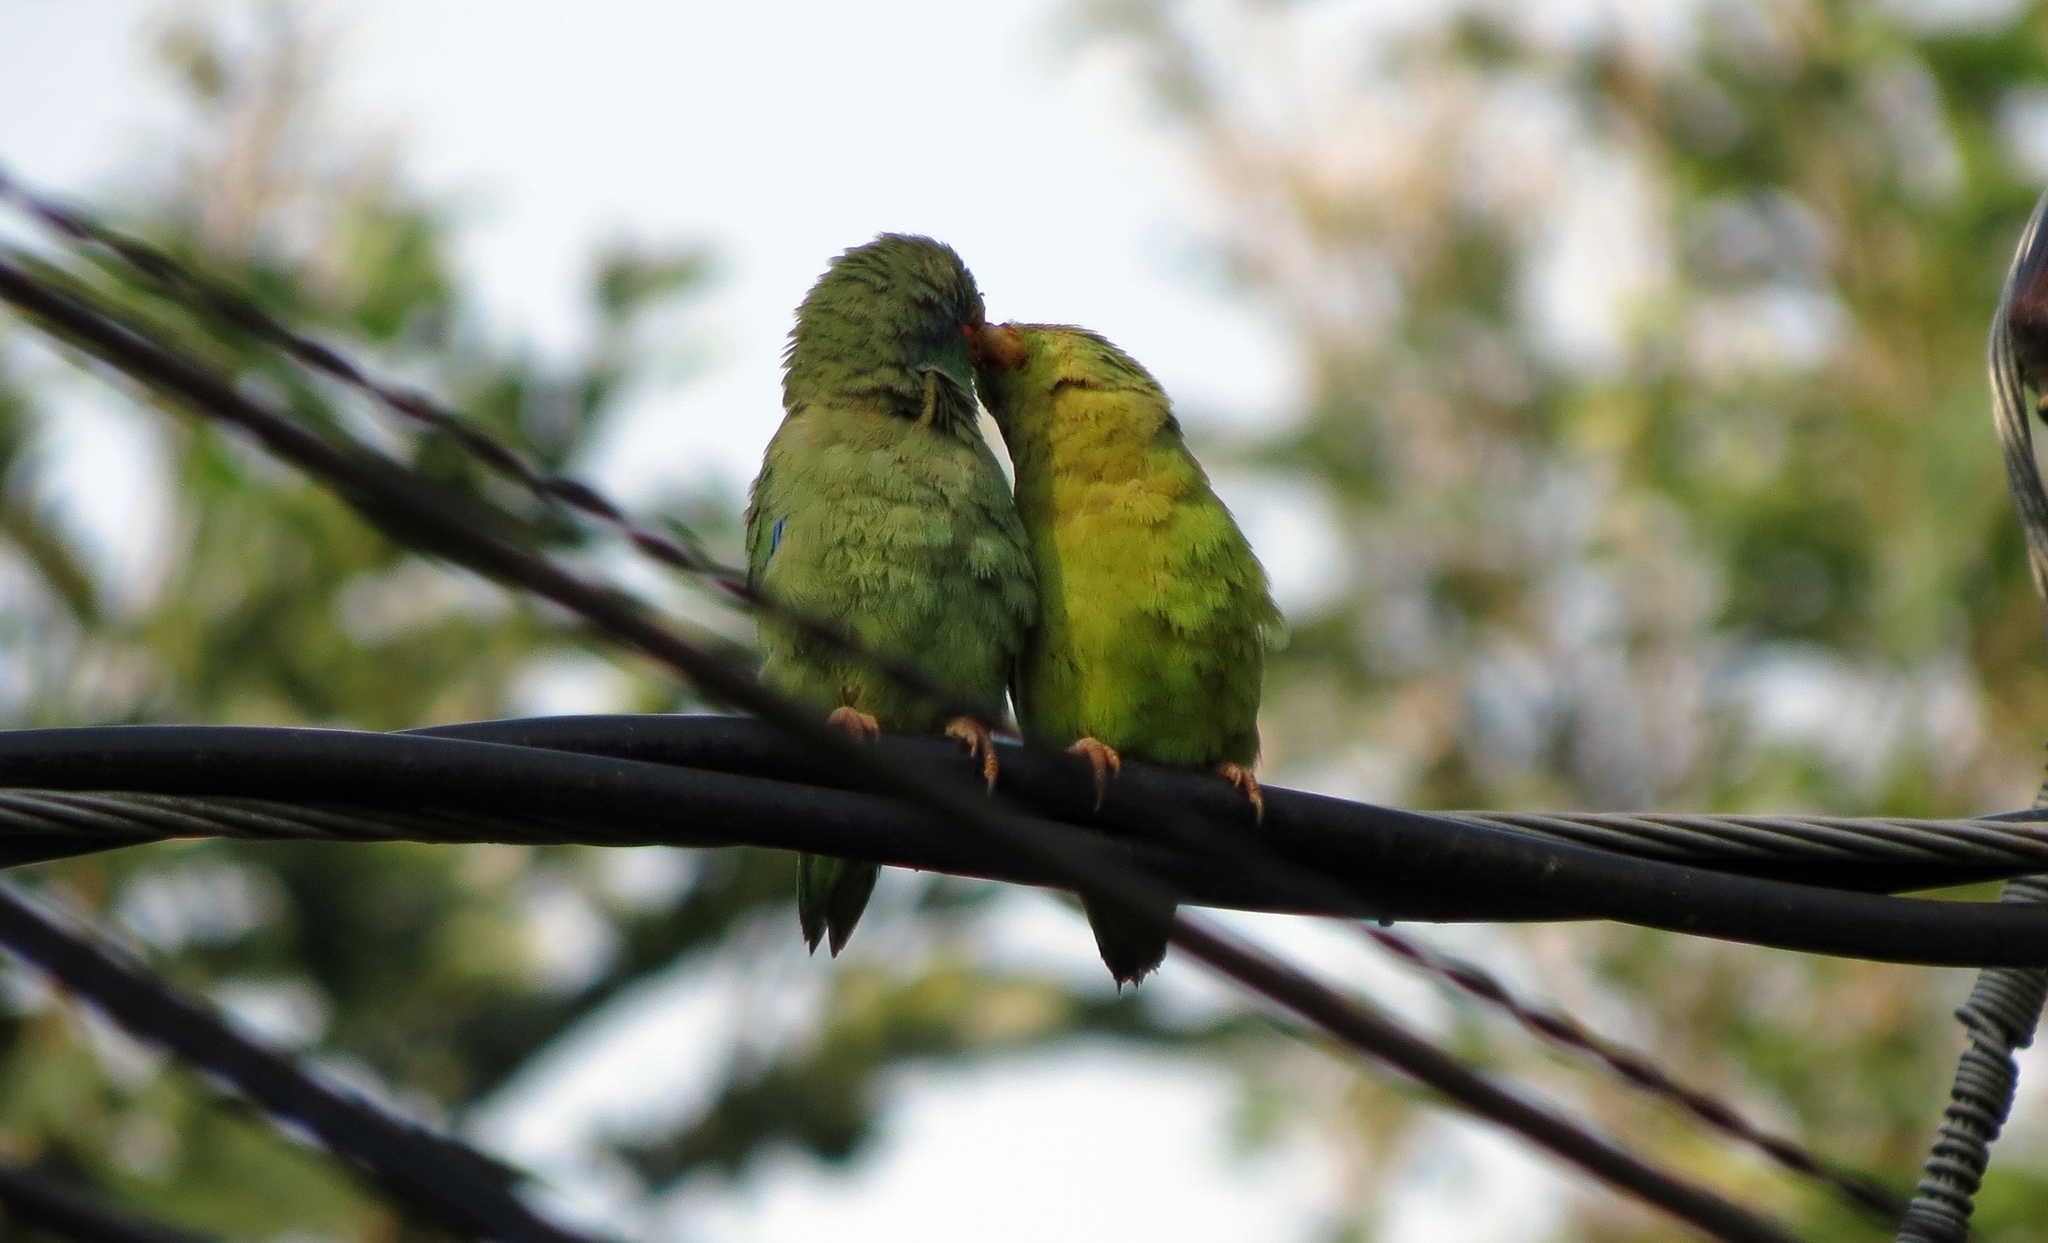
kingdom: Animalia
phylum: Chordata
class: Aves
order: Psittaciformes
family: Psittacidae
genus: Forpus
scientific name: Forpus conspicillatus
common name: Spectacled parrotlet
